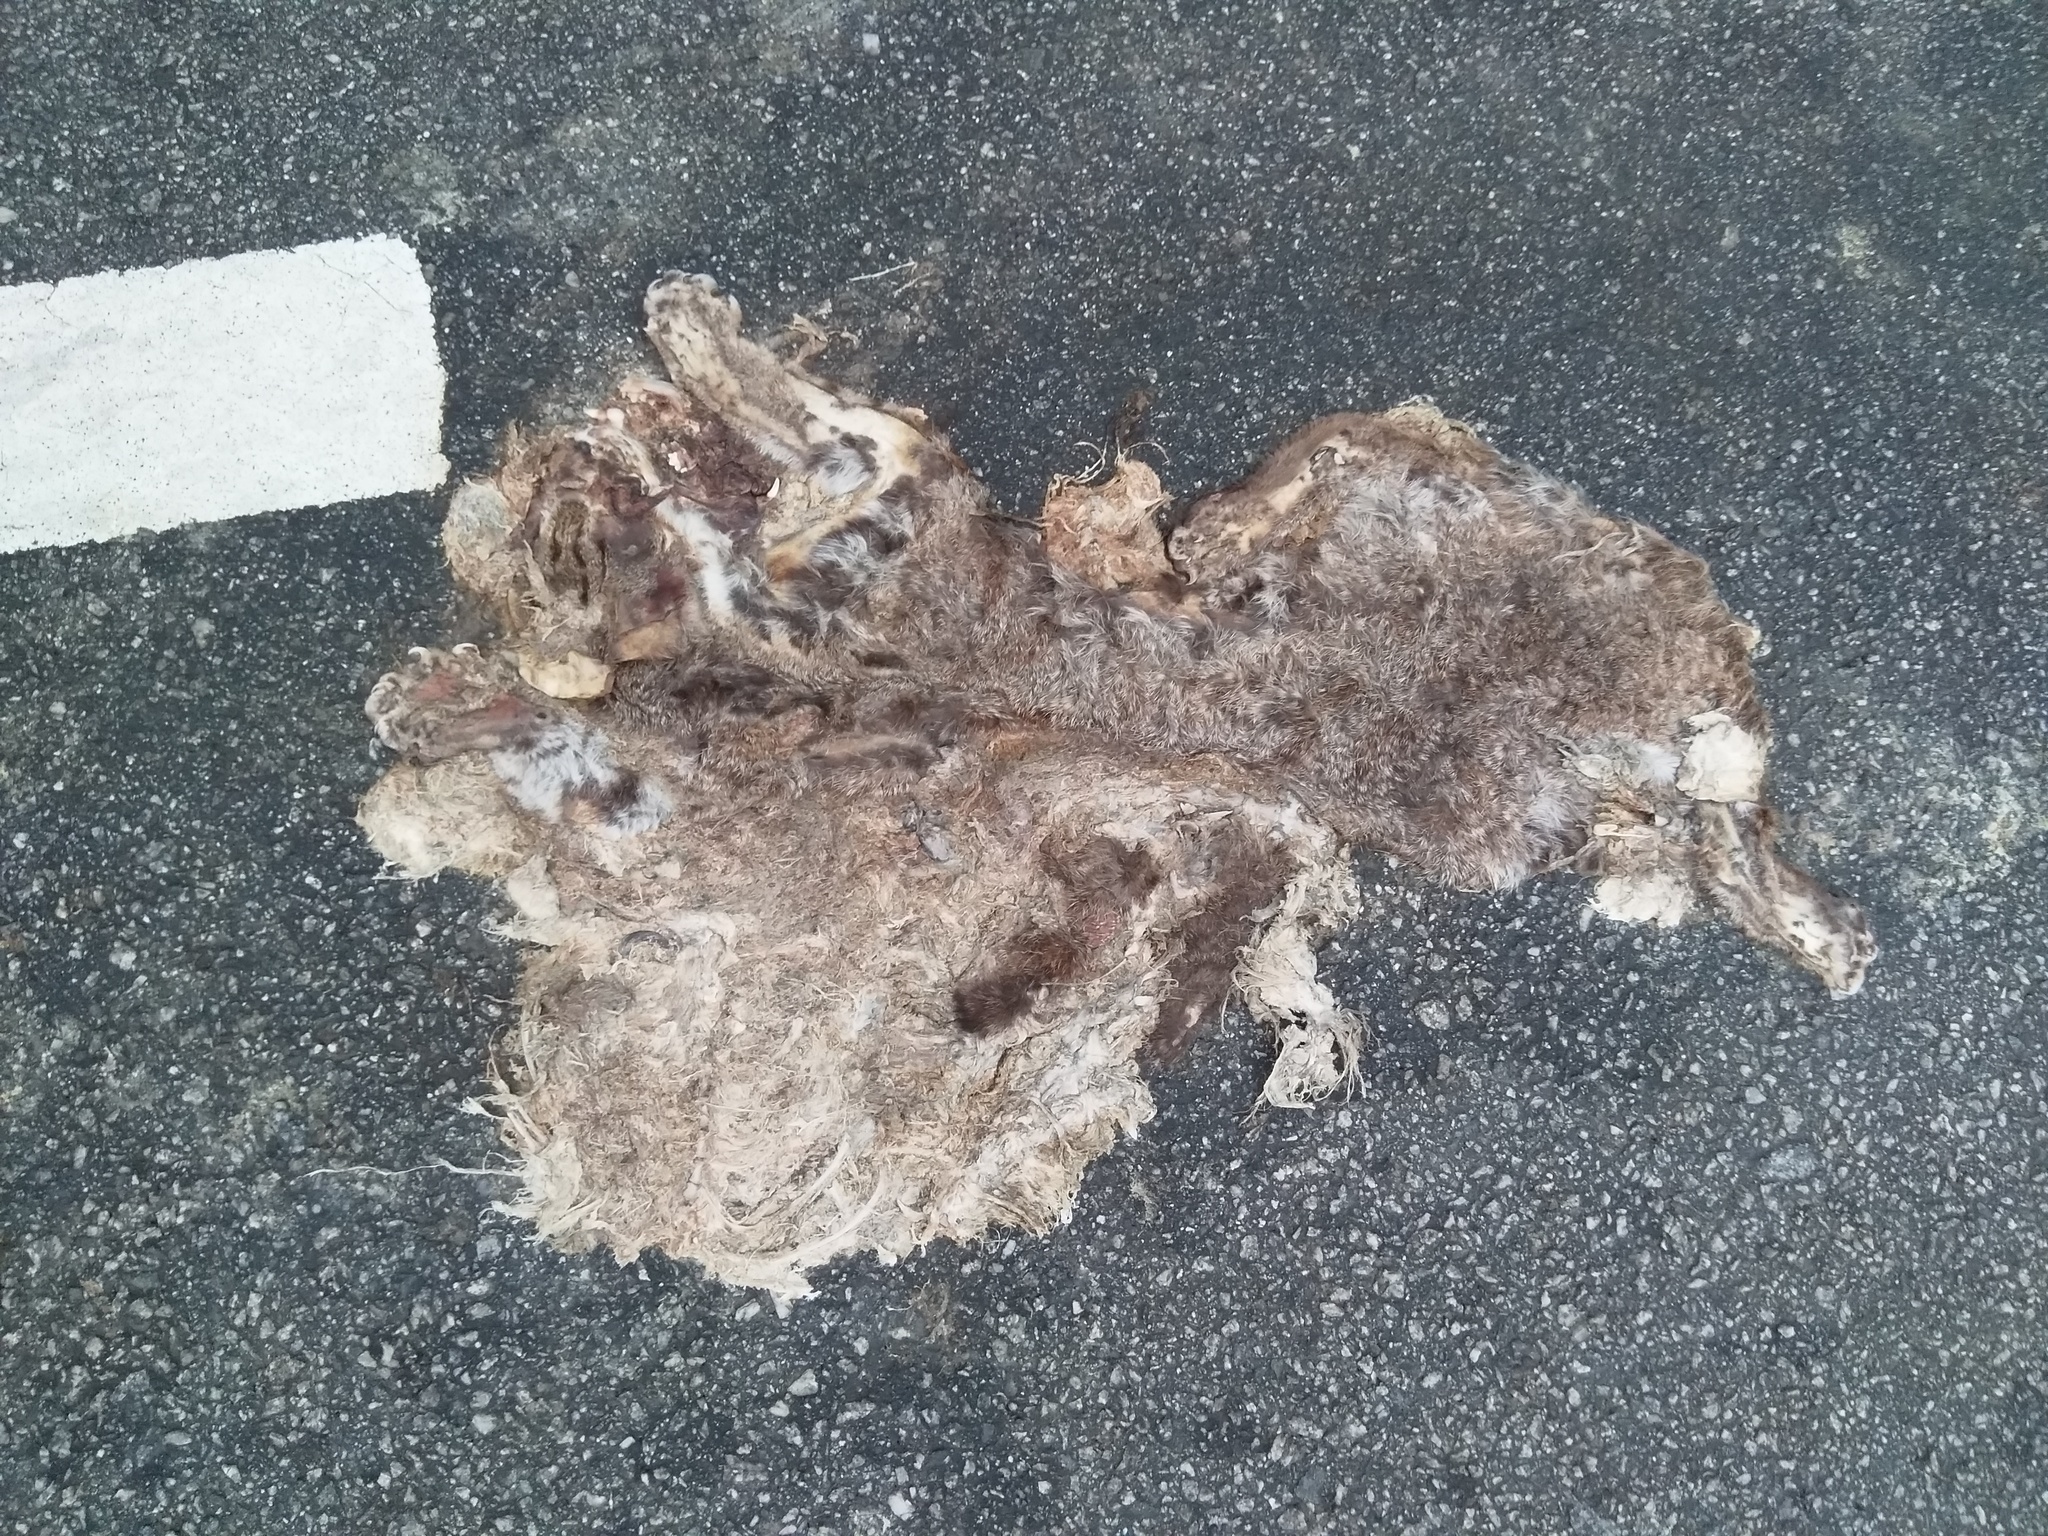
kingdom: Animalia
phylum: Chordata
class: Mammalia
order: Carnivora
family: Felidae
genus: Prionailurus
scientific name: Prionailurus rubiginosus
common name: Rusty-spotted cat
